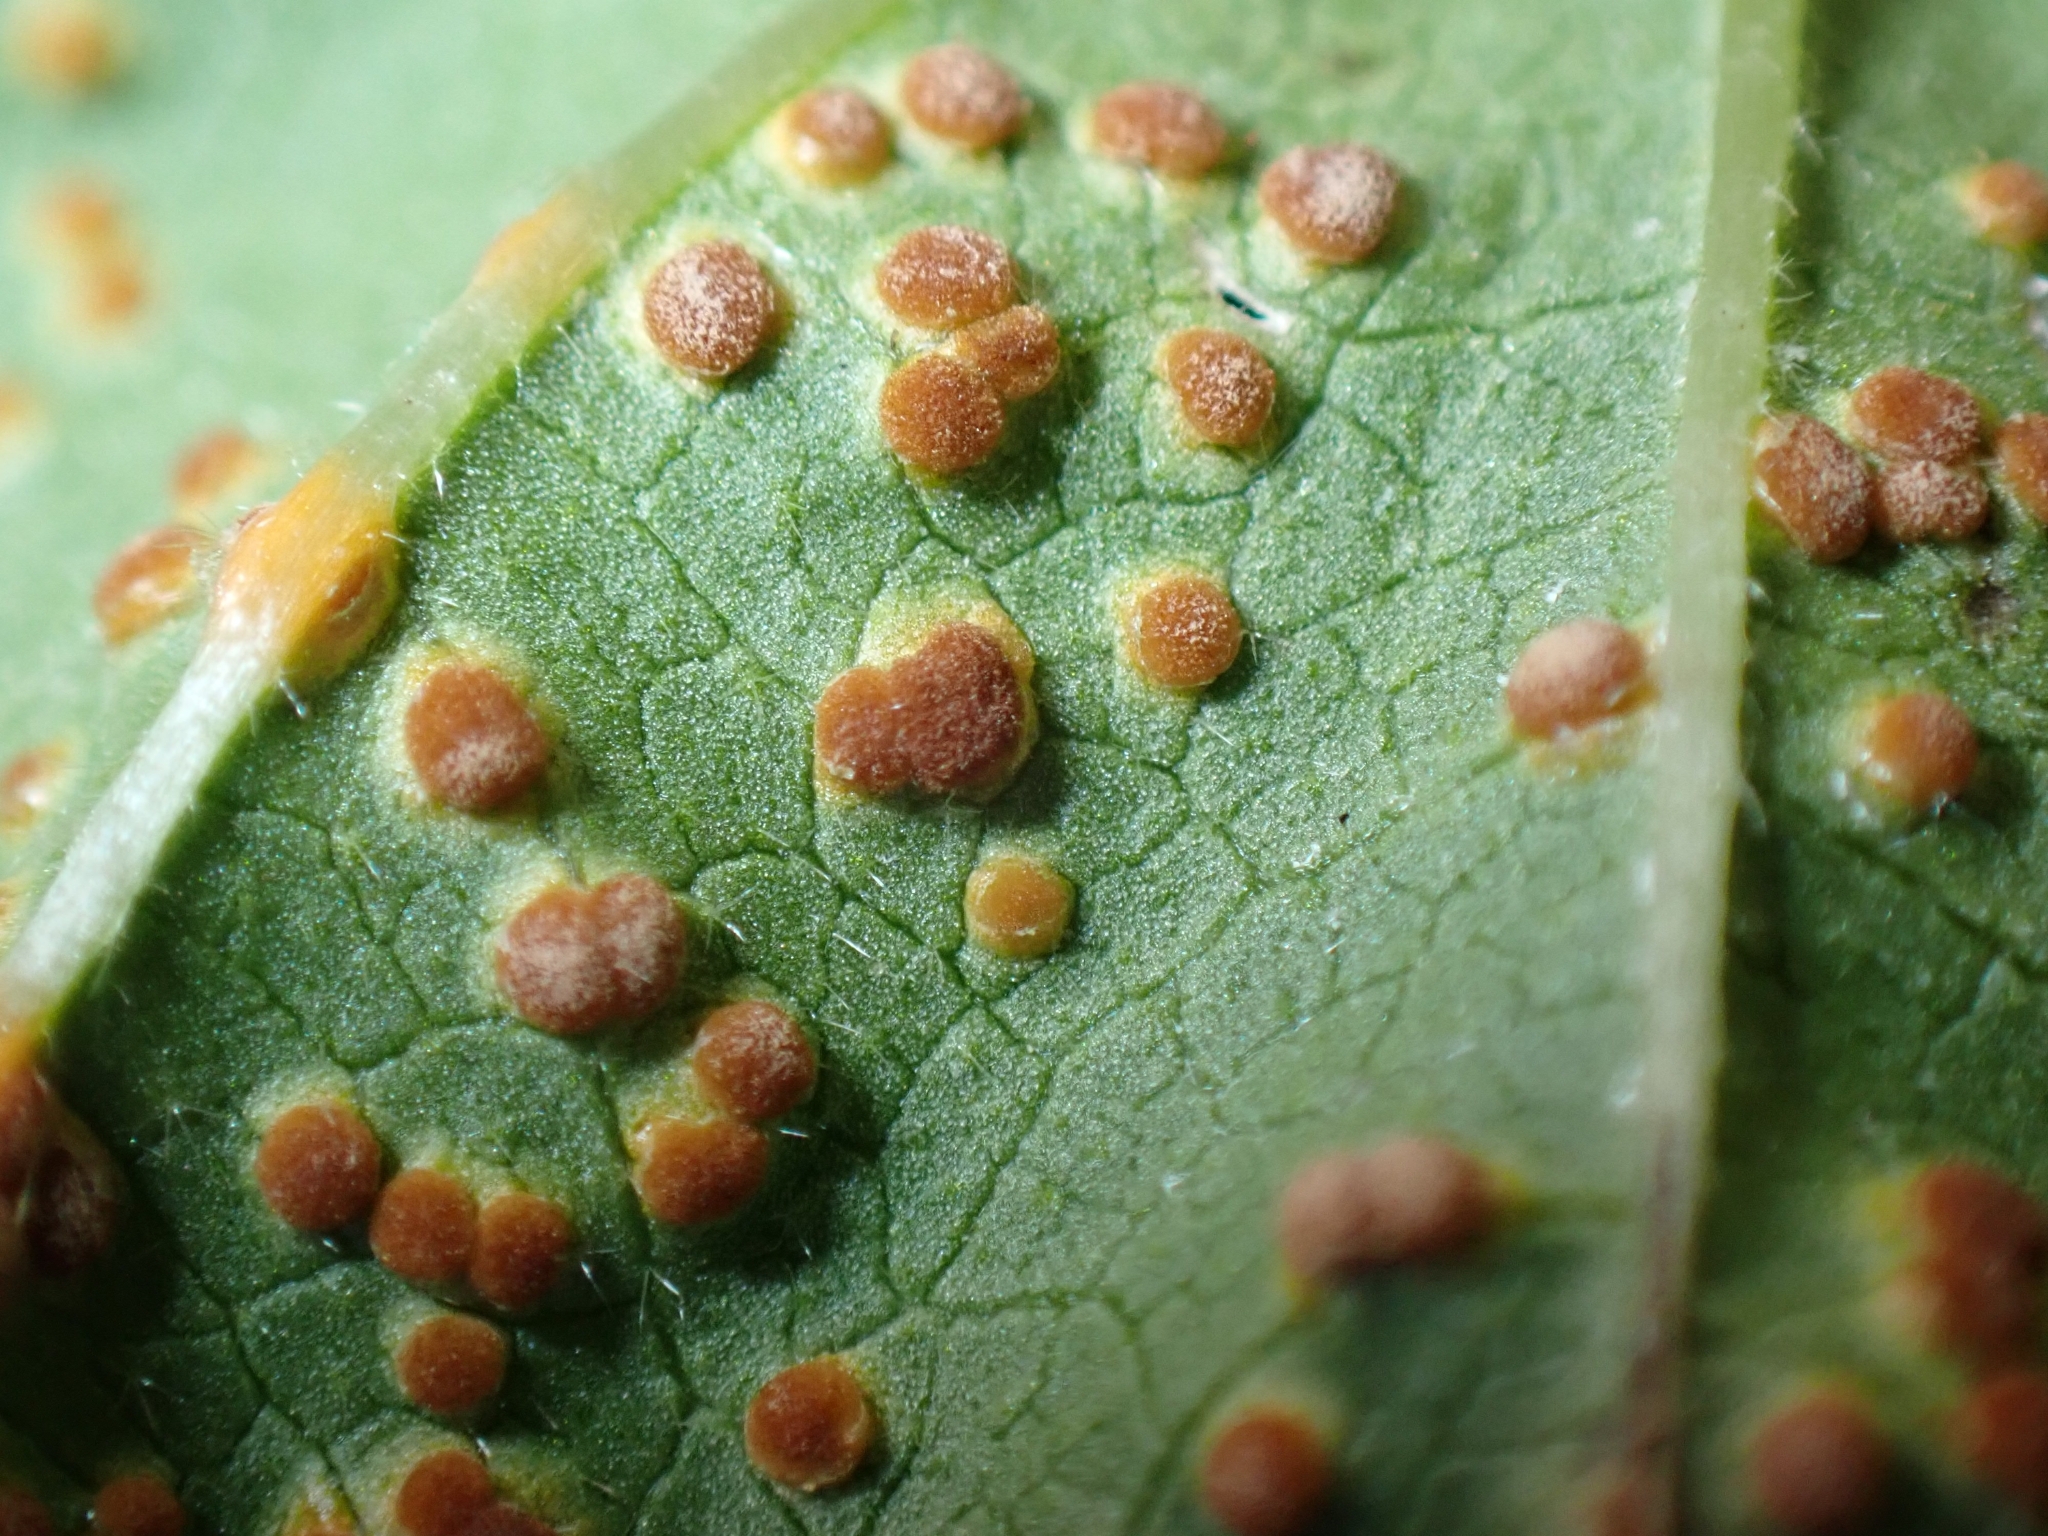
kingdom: Fungi
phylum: Basidiomycota
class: Pucciniomycetes
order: Pucciniales
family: Pucciniaceae
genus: Puccinia
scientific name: Puccinia malvacearum
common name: Hollyhock rust
